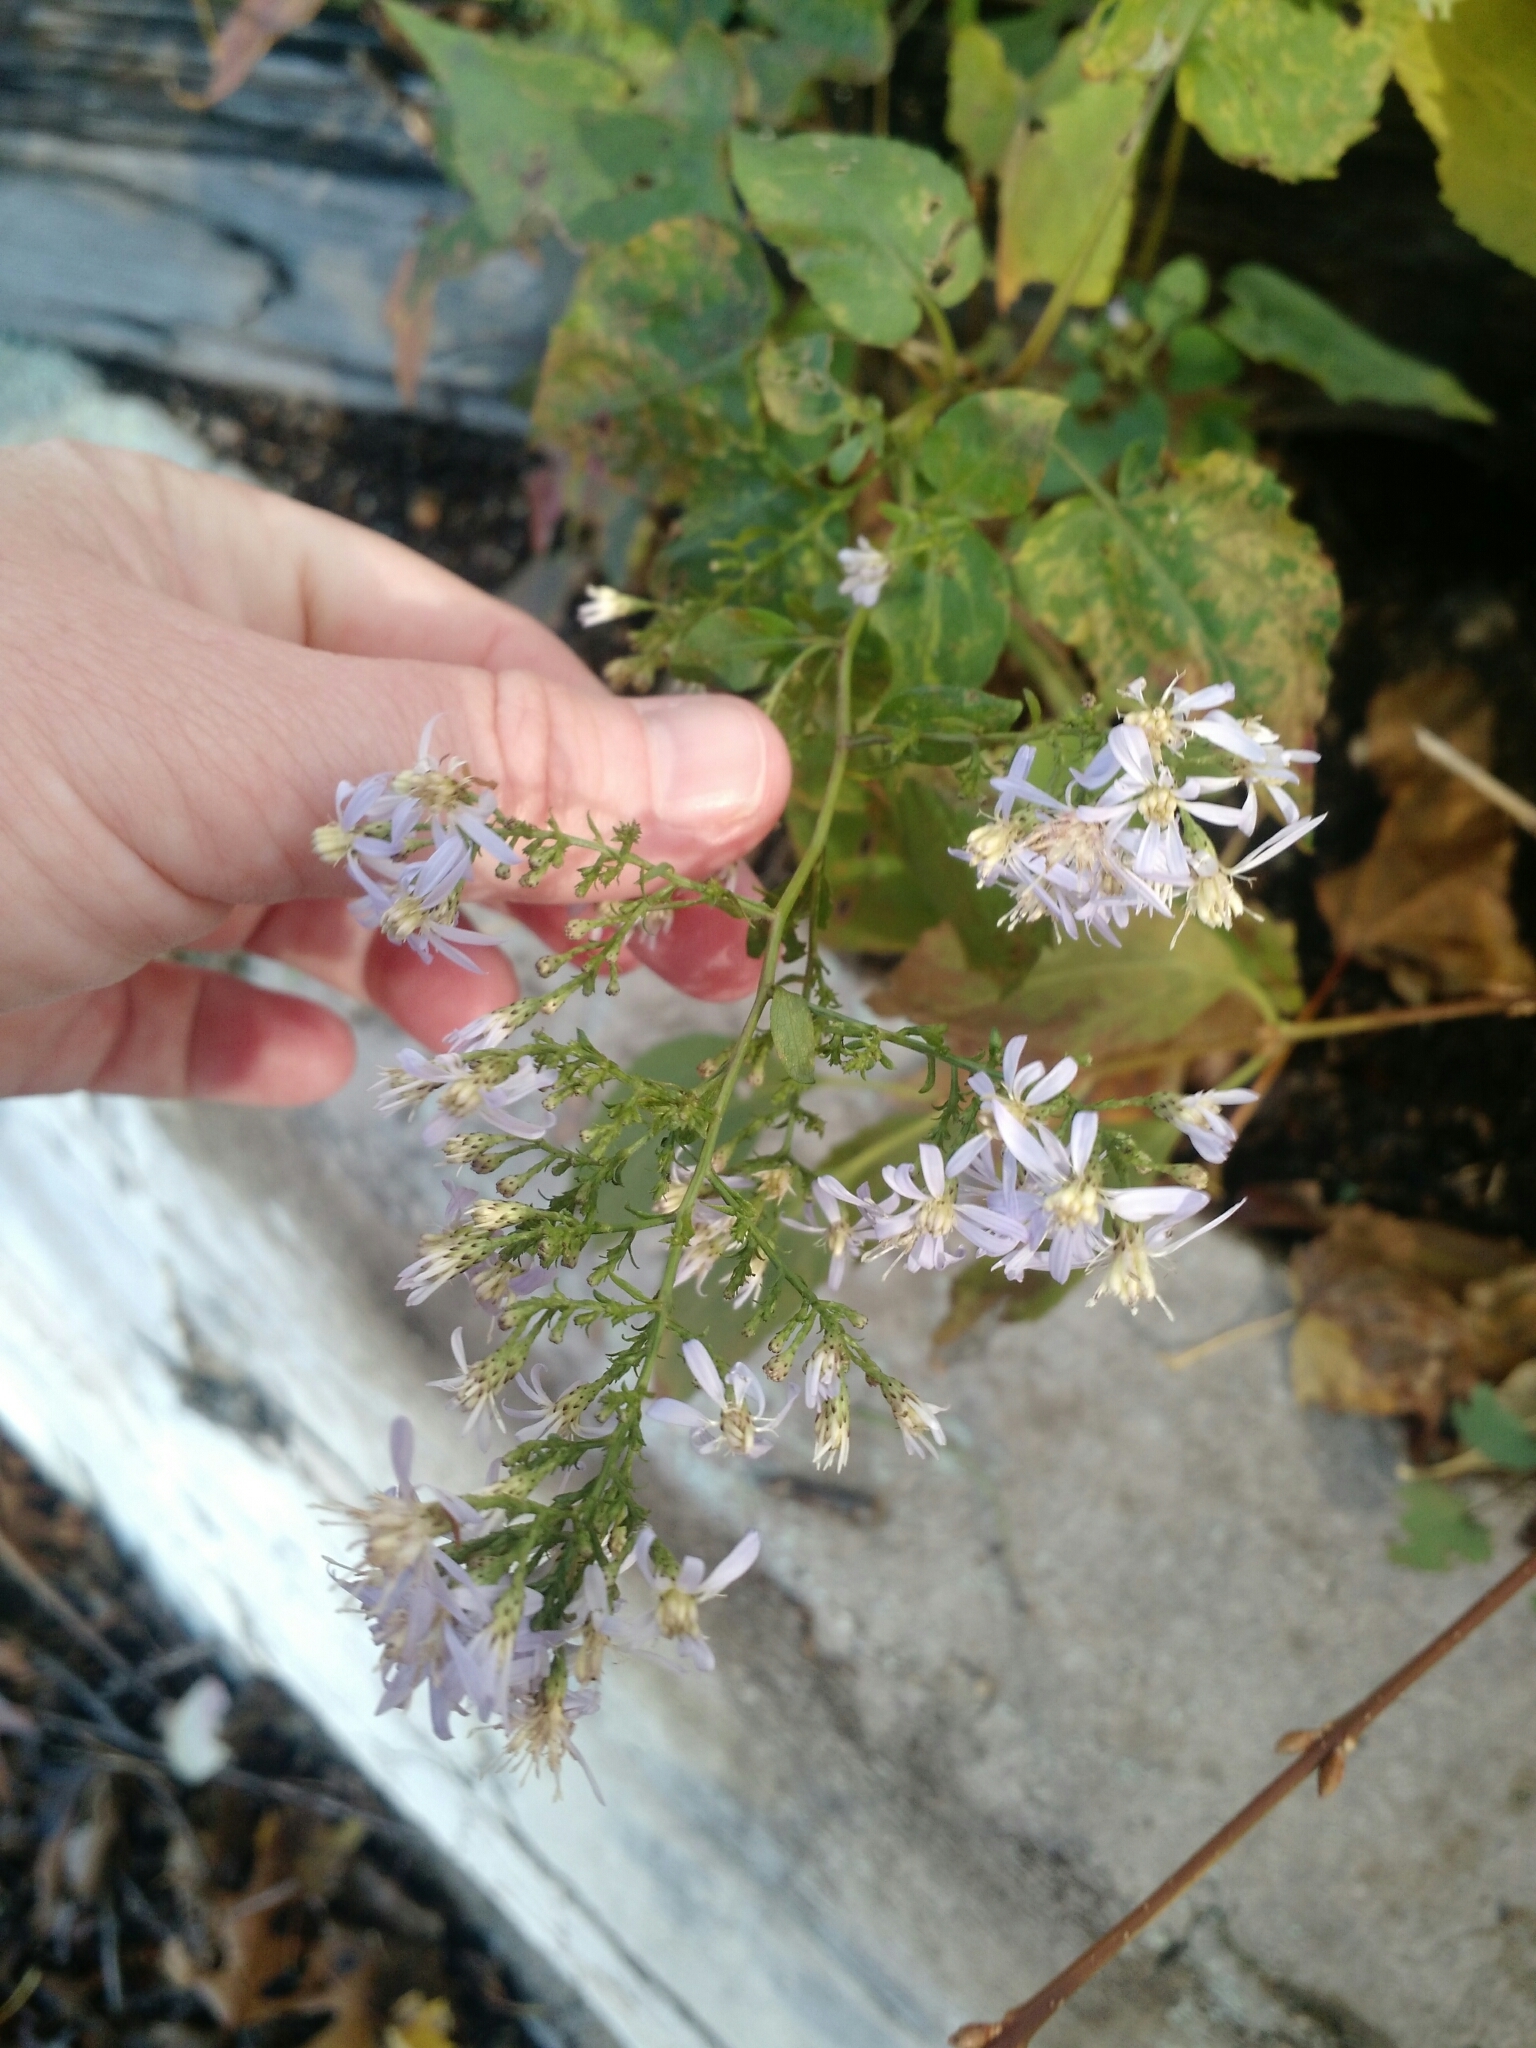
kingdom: Plantae
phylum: Tracheophyta
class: Magnoliopsida
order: Asterales
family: Asteraceae
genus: Symphyotrichum
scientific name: Symphyotrichum cordifolium
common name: Beeweed
